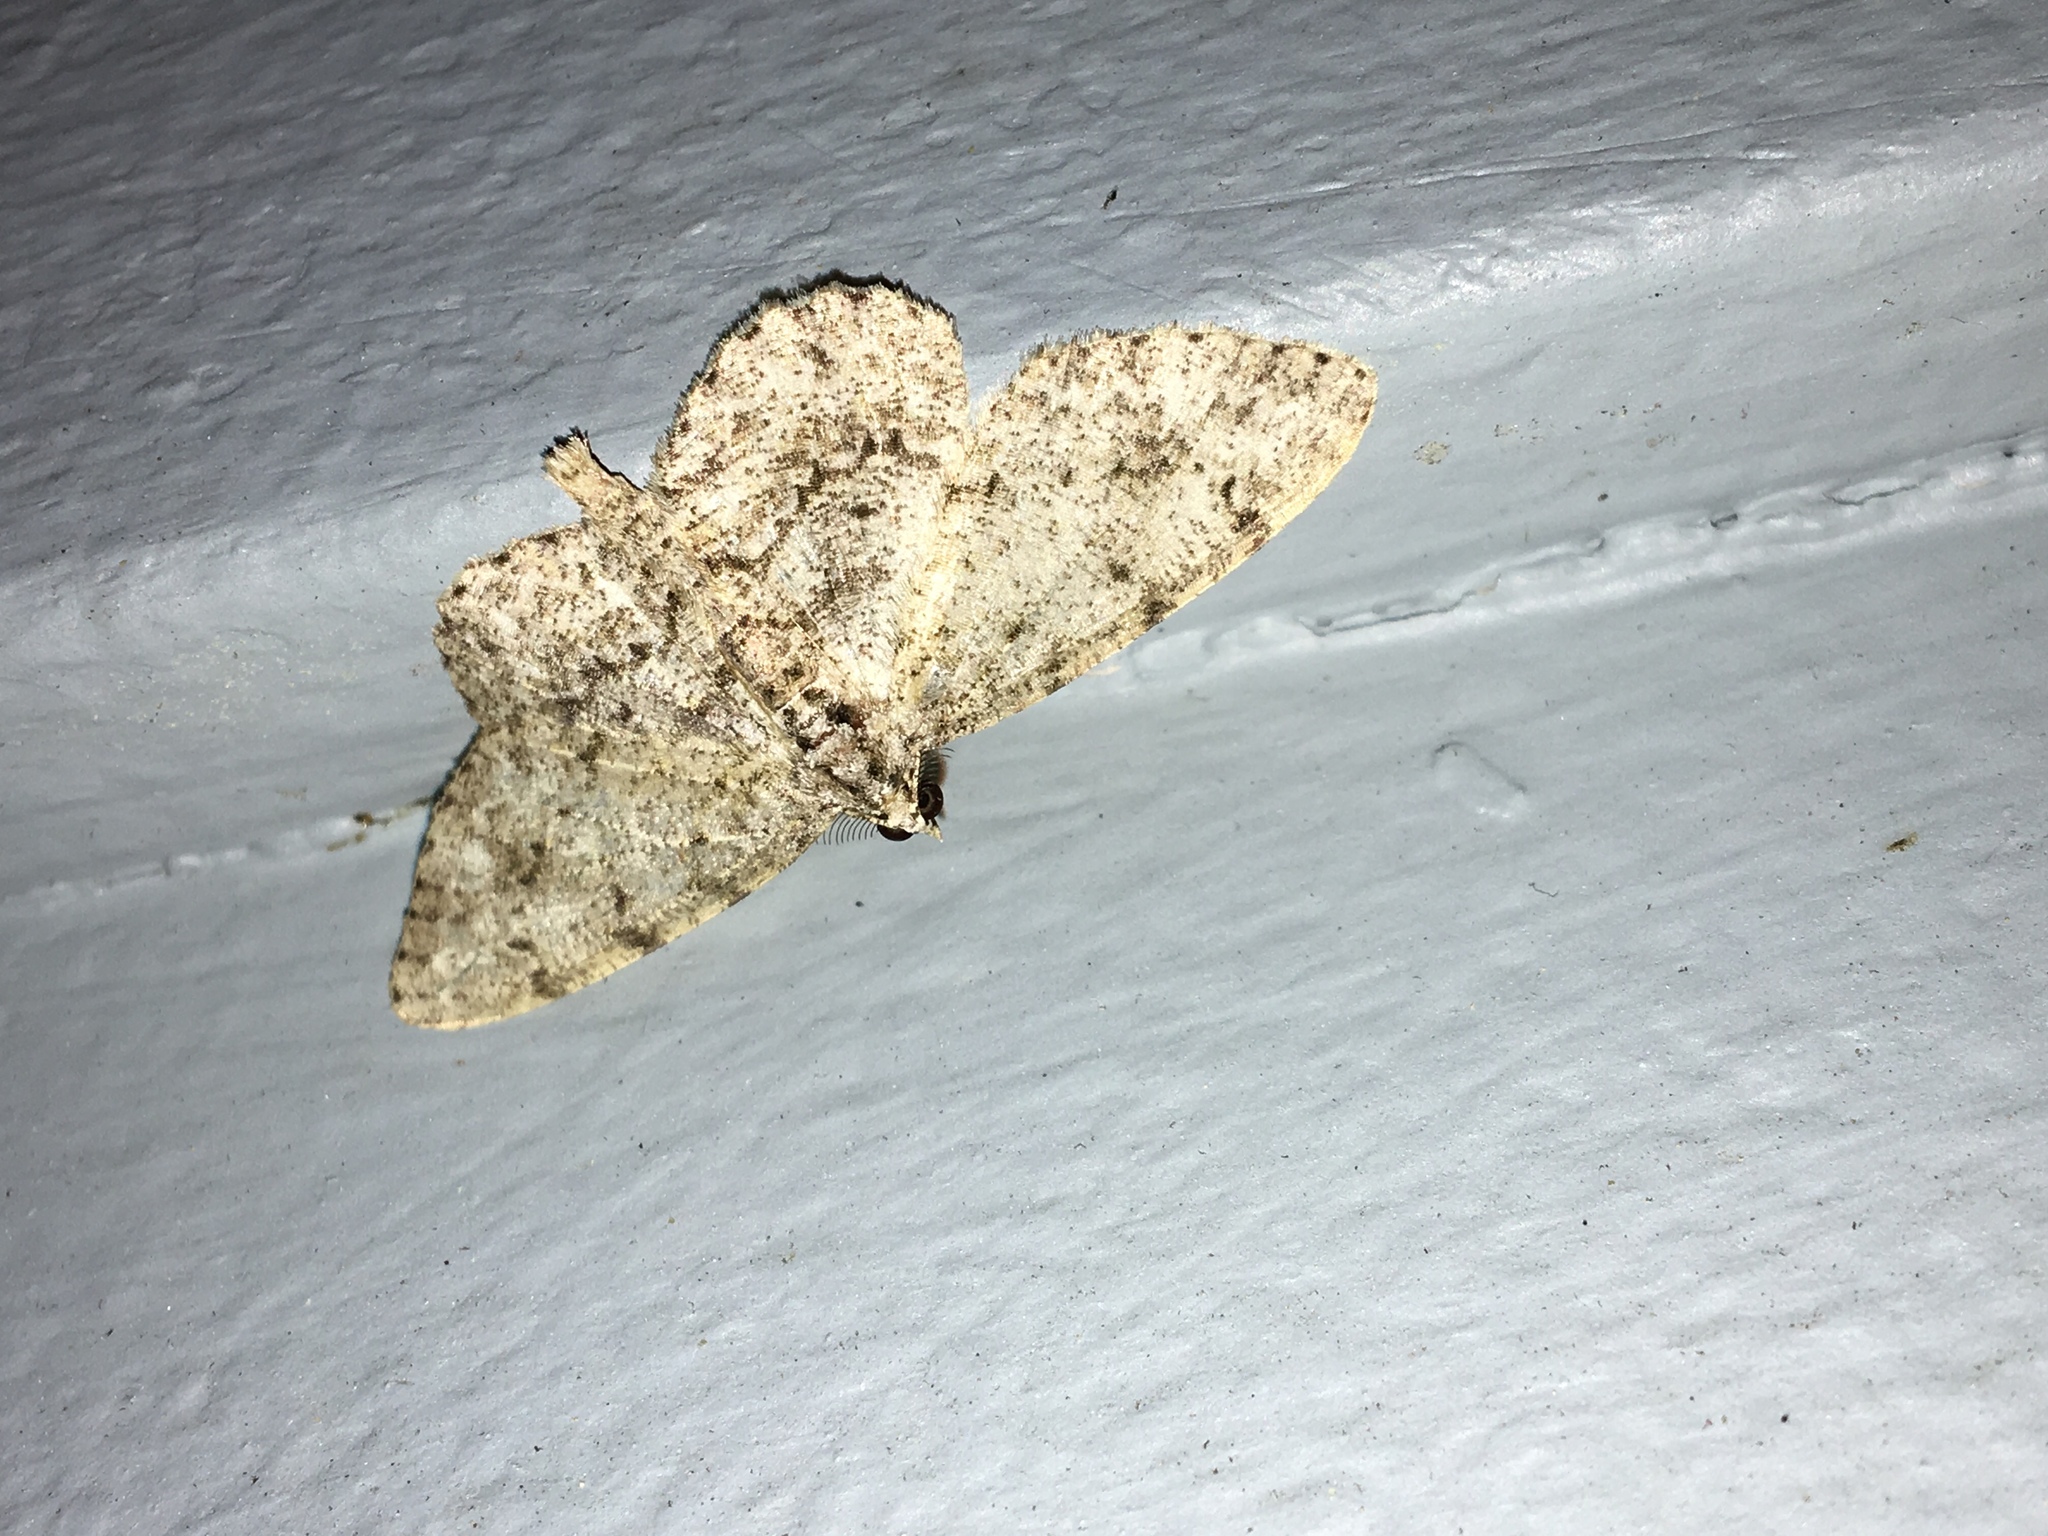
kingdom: Animalia
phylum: Arthropoda
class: Insecta
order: Lepidoptera
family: Geometridae
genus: Protoboarmia
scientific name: Protoboarmia porcelaria
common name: Porcelain gray
